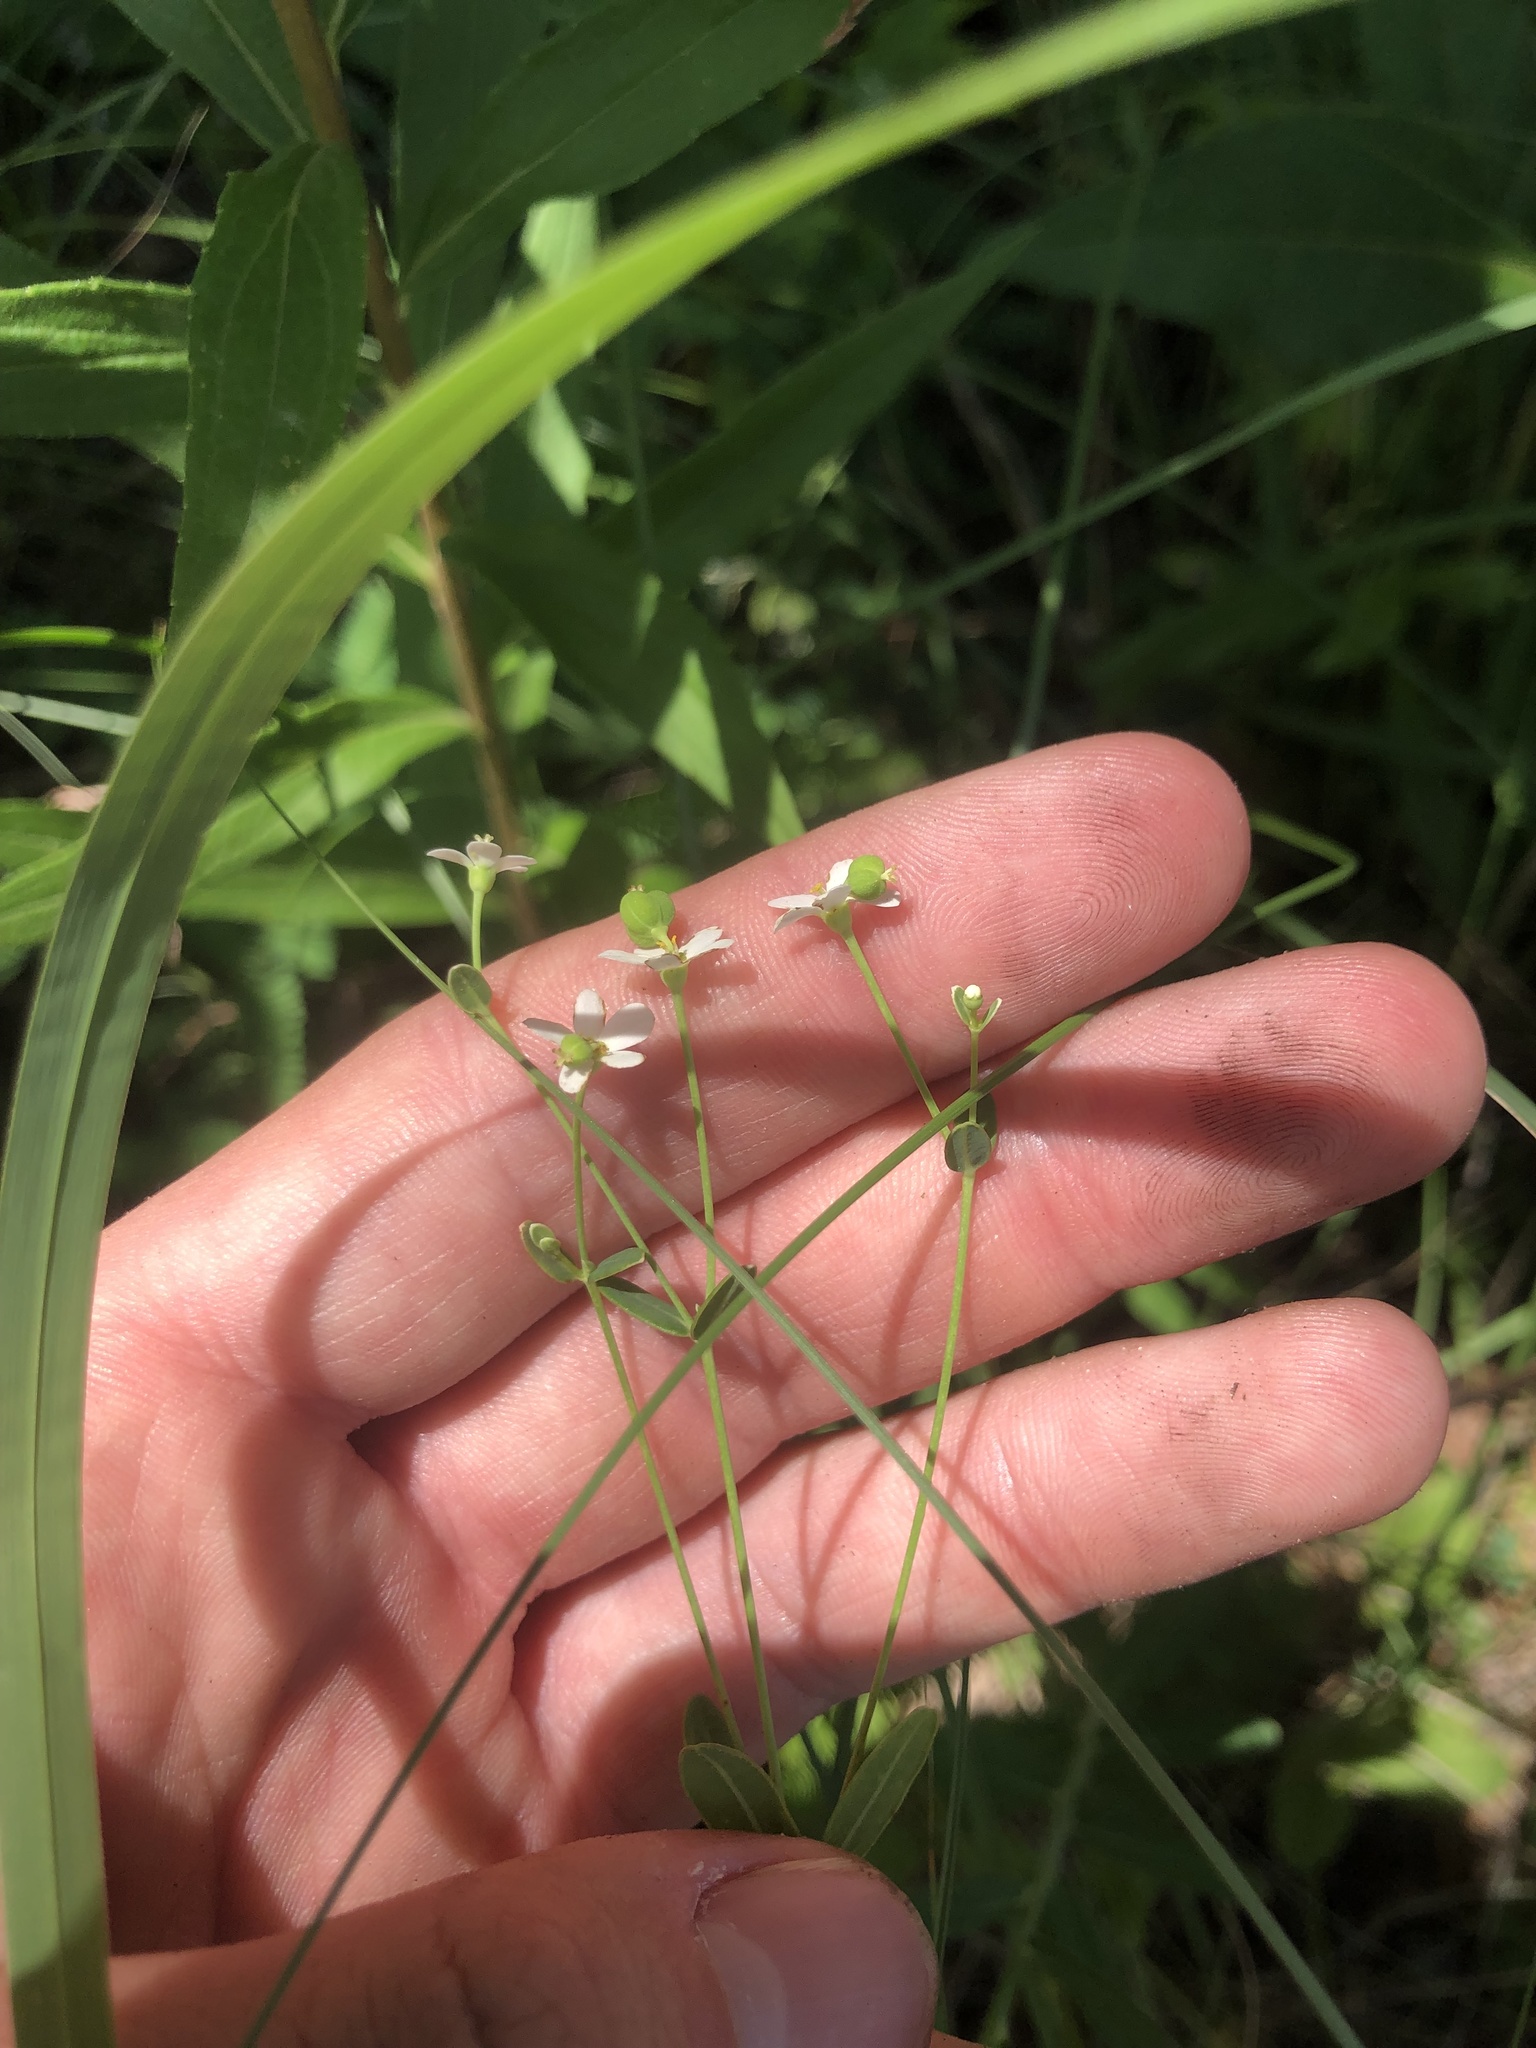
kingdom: Plantae
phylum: Tracheophyta
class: Magnoliopsida
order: Malpighiales
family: Euphorbiaceae
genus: Euphorbia
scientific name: Euphorbia corollata
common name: Flowering spurge
